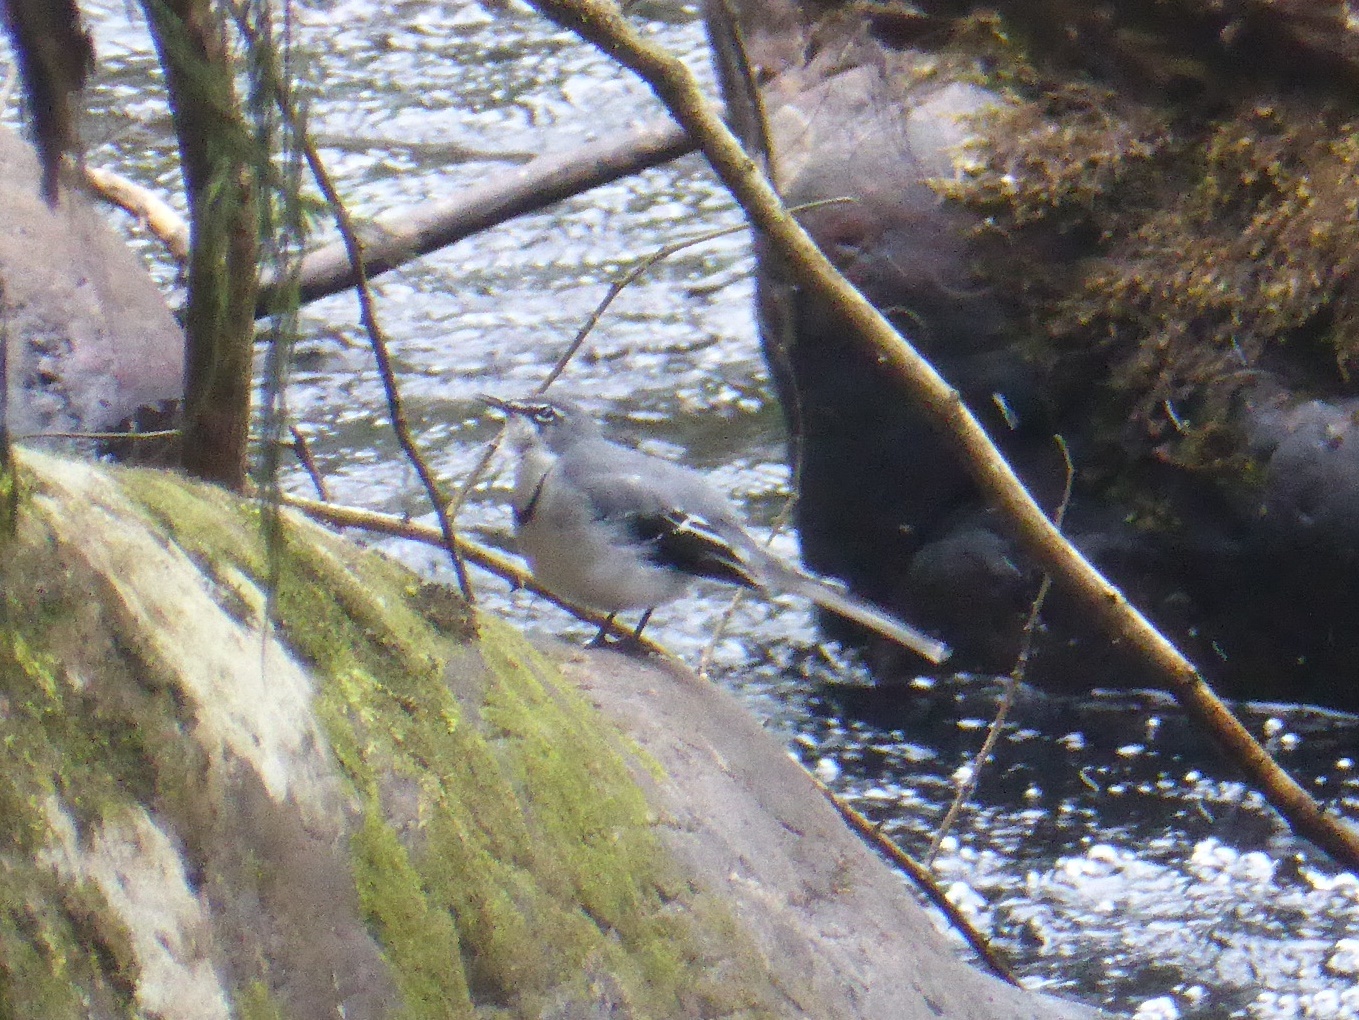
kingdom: Animalia
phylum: Chordata
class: Aves
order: Passeriformes
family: Motacillidae
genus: Motacilla
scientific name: Motacilla clara
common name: Mountain wagtail
